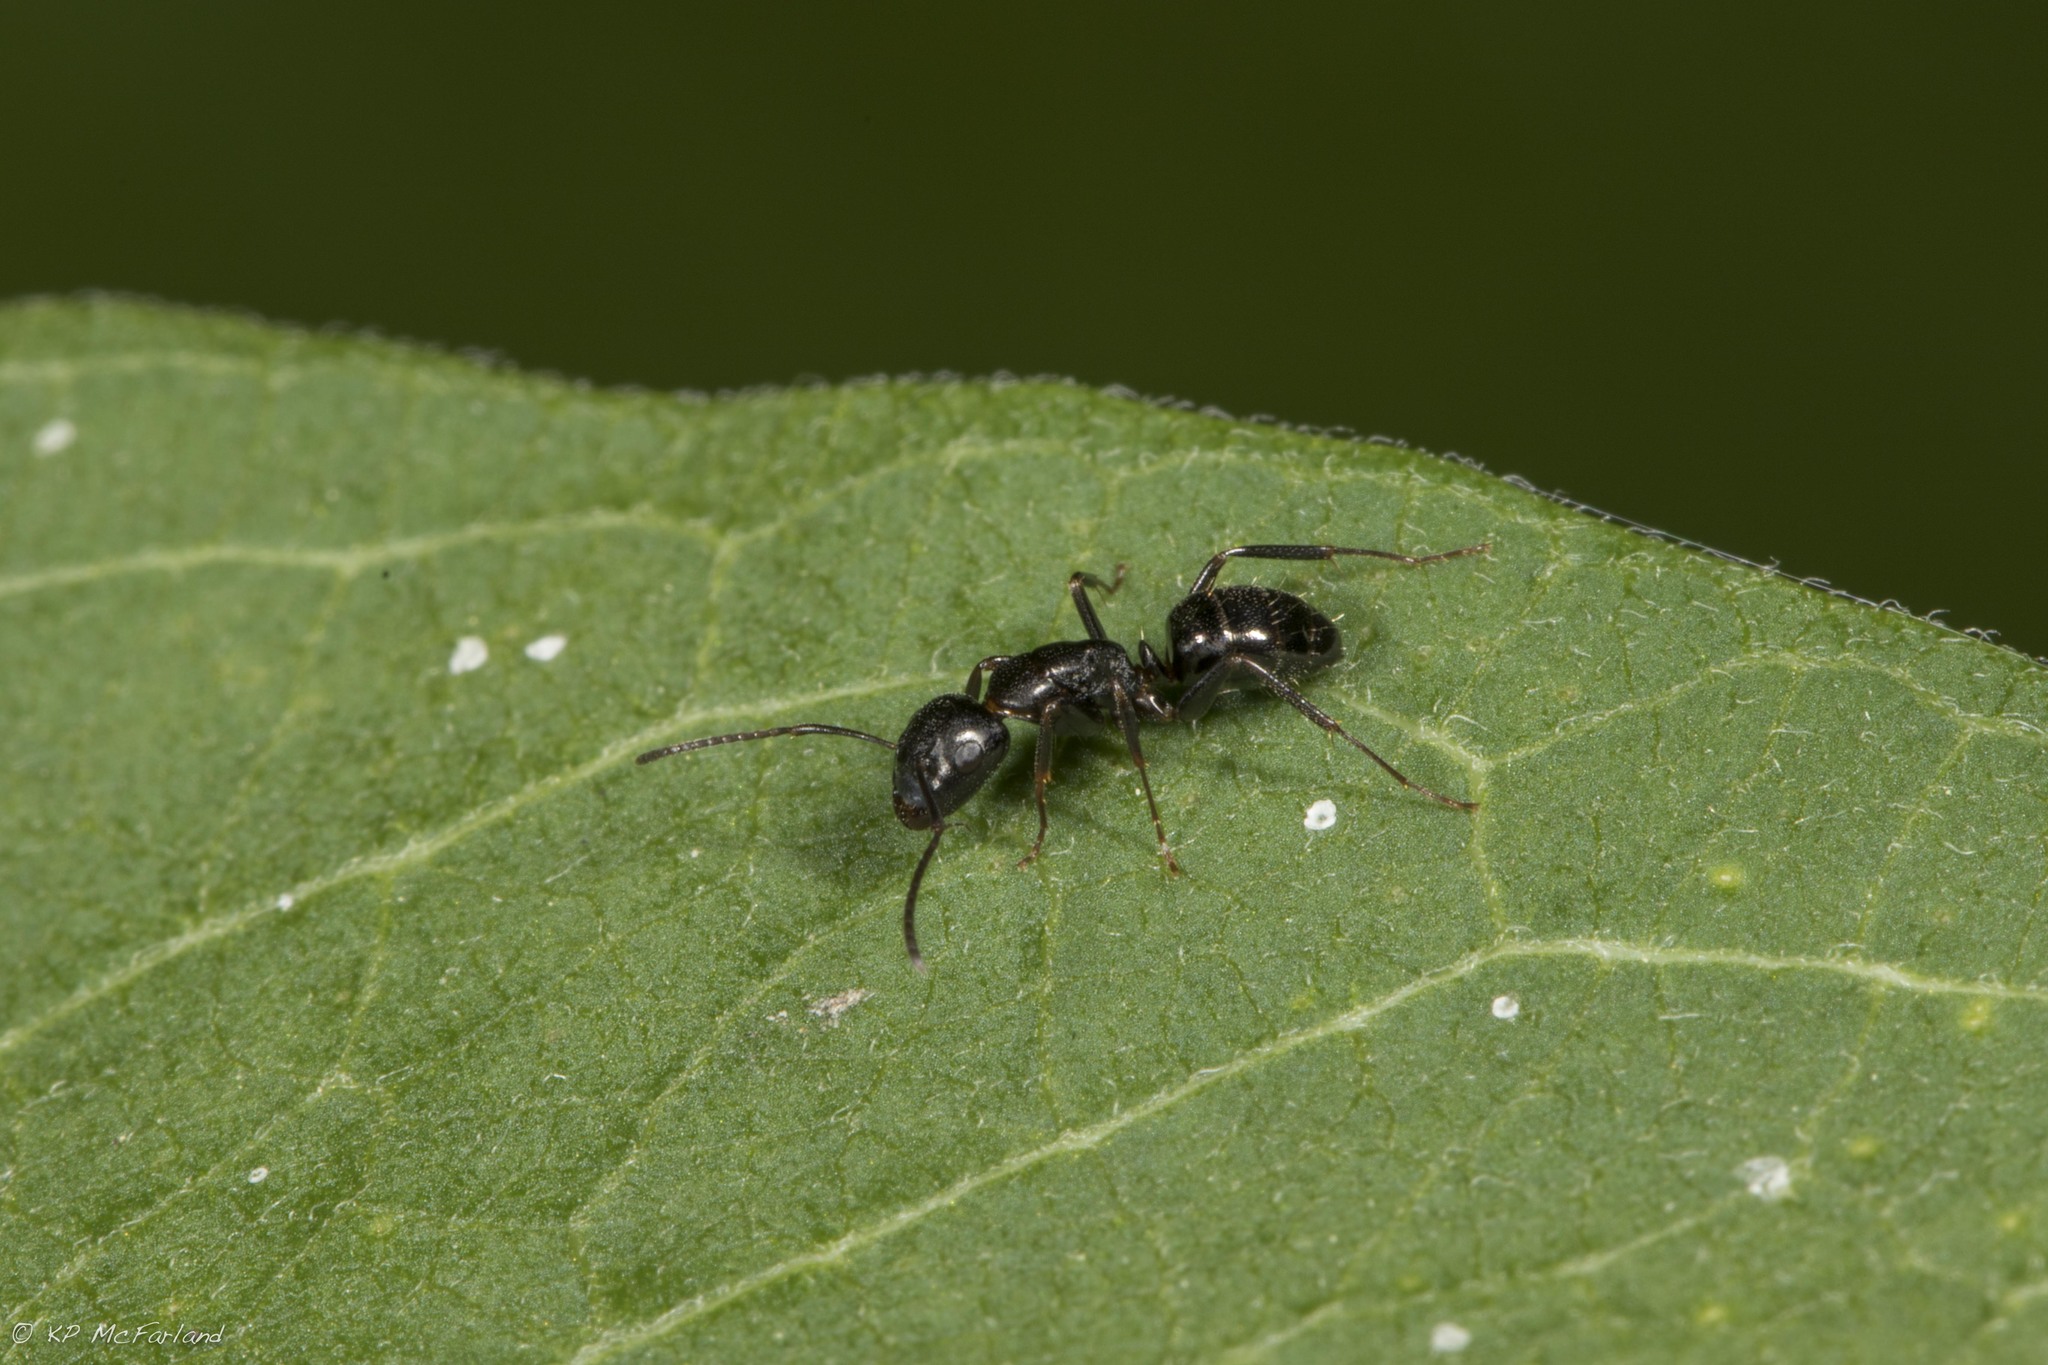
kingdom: Animalia
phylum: Arthropoda
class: Insecta
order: Hymenoptera
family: Formicidae
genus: Camponotus
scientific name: Camponotus nearcticus
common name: Smaller carpenter ant
